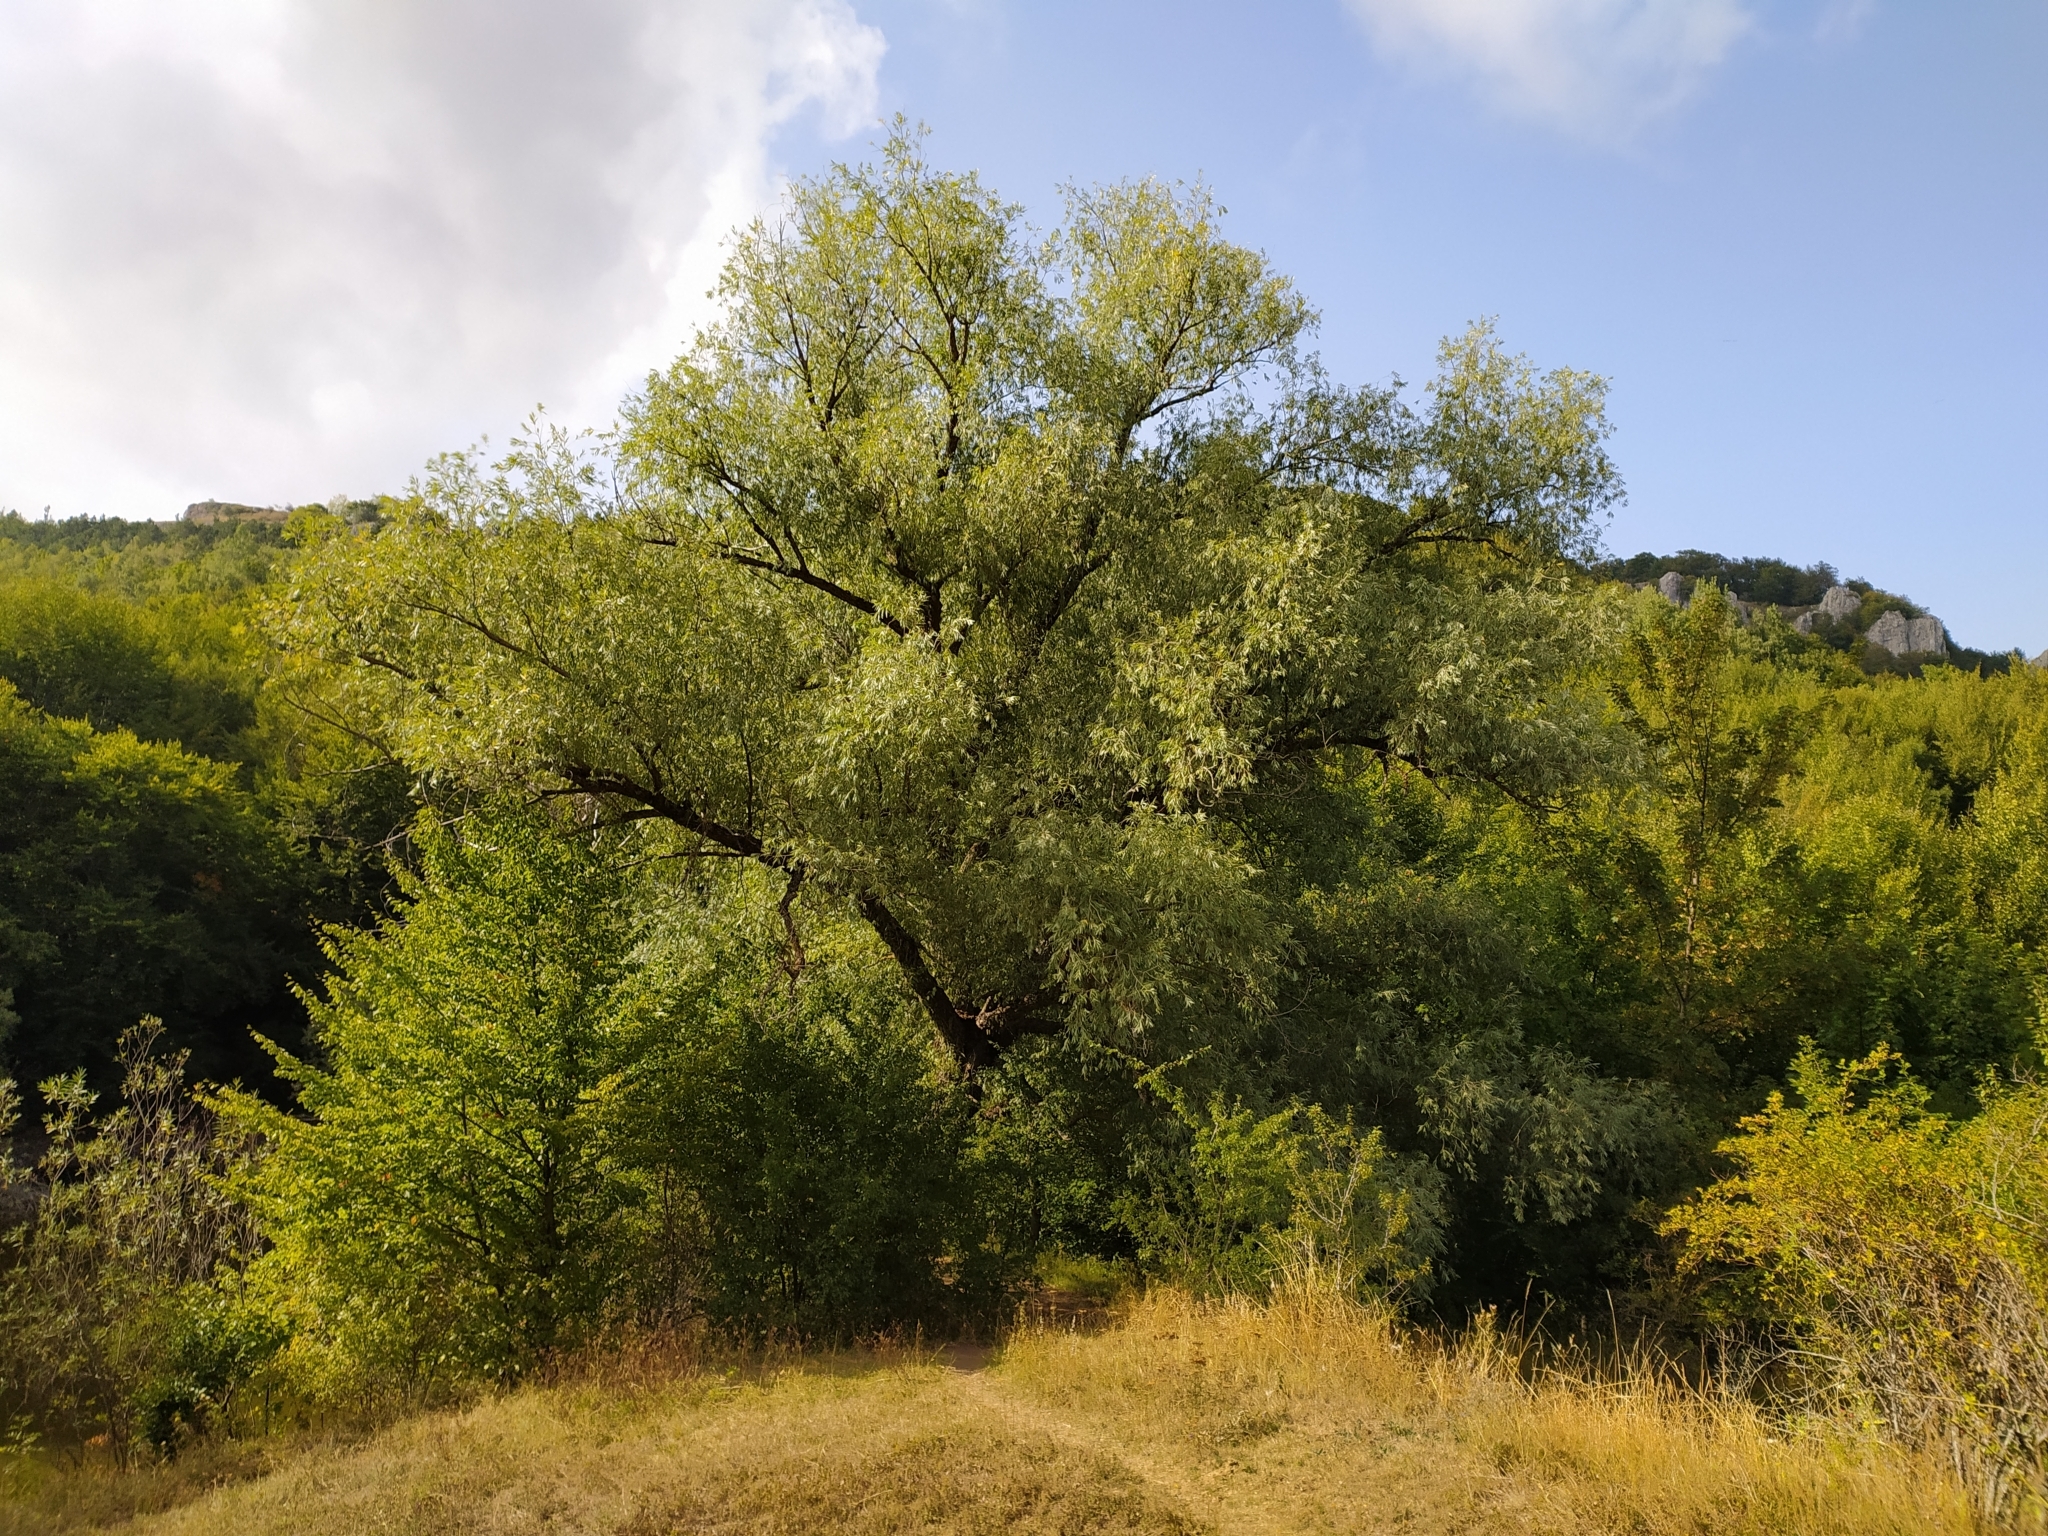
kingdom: Plantae
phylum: Tracheophyta
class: Magnoliopsida
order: Malpighiales
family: Salicaceae
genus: Salix
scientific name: Salix alba
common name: White willow
